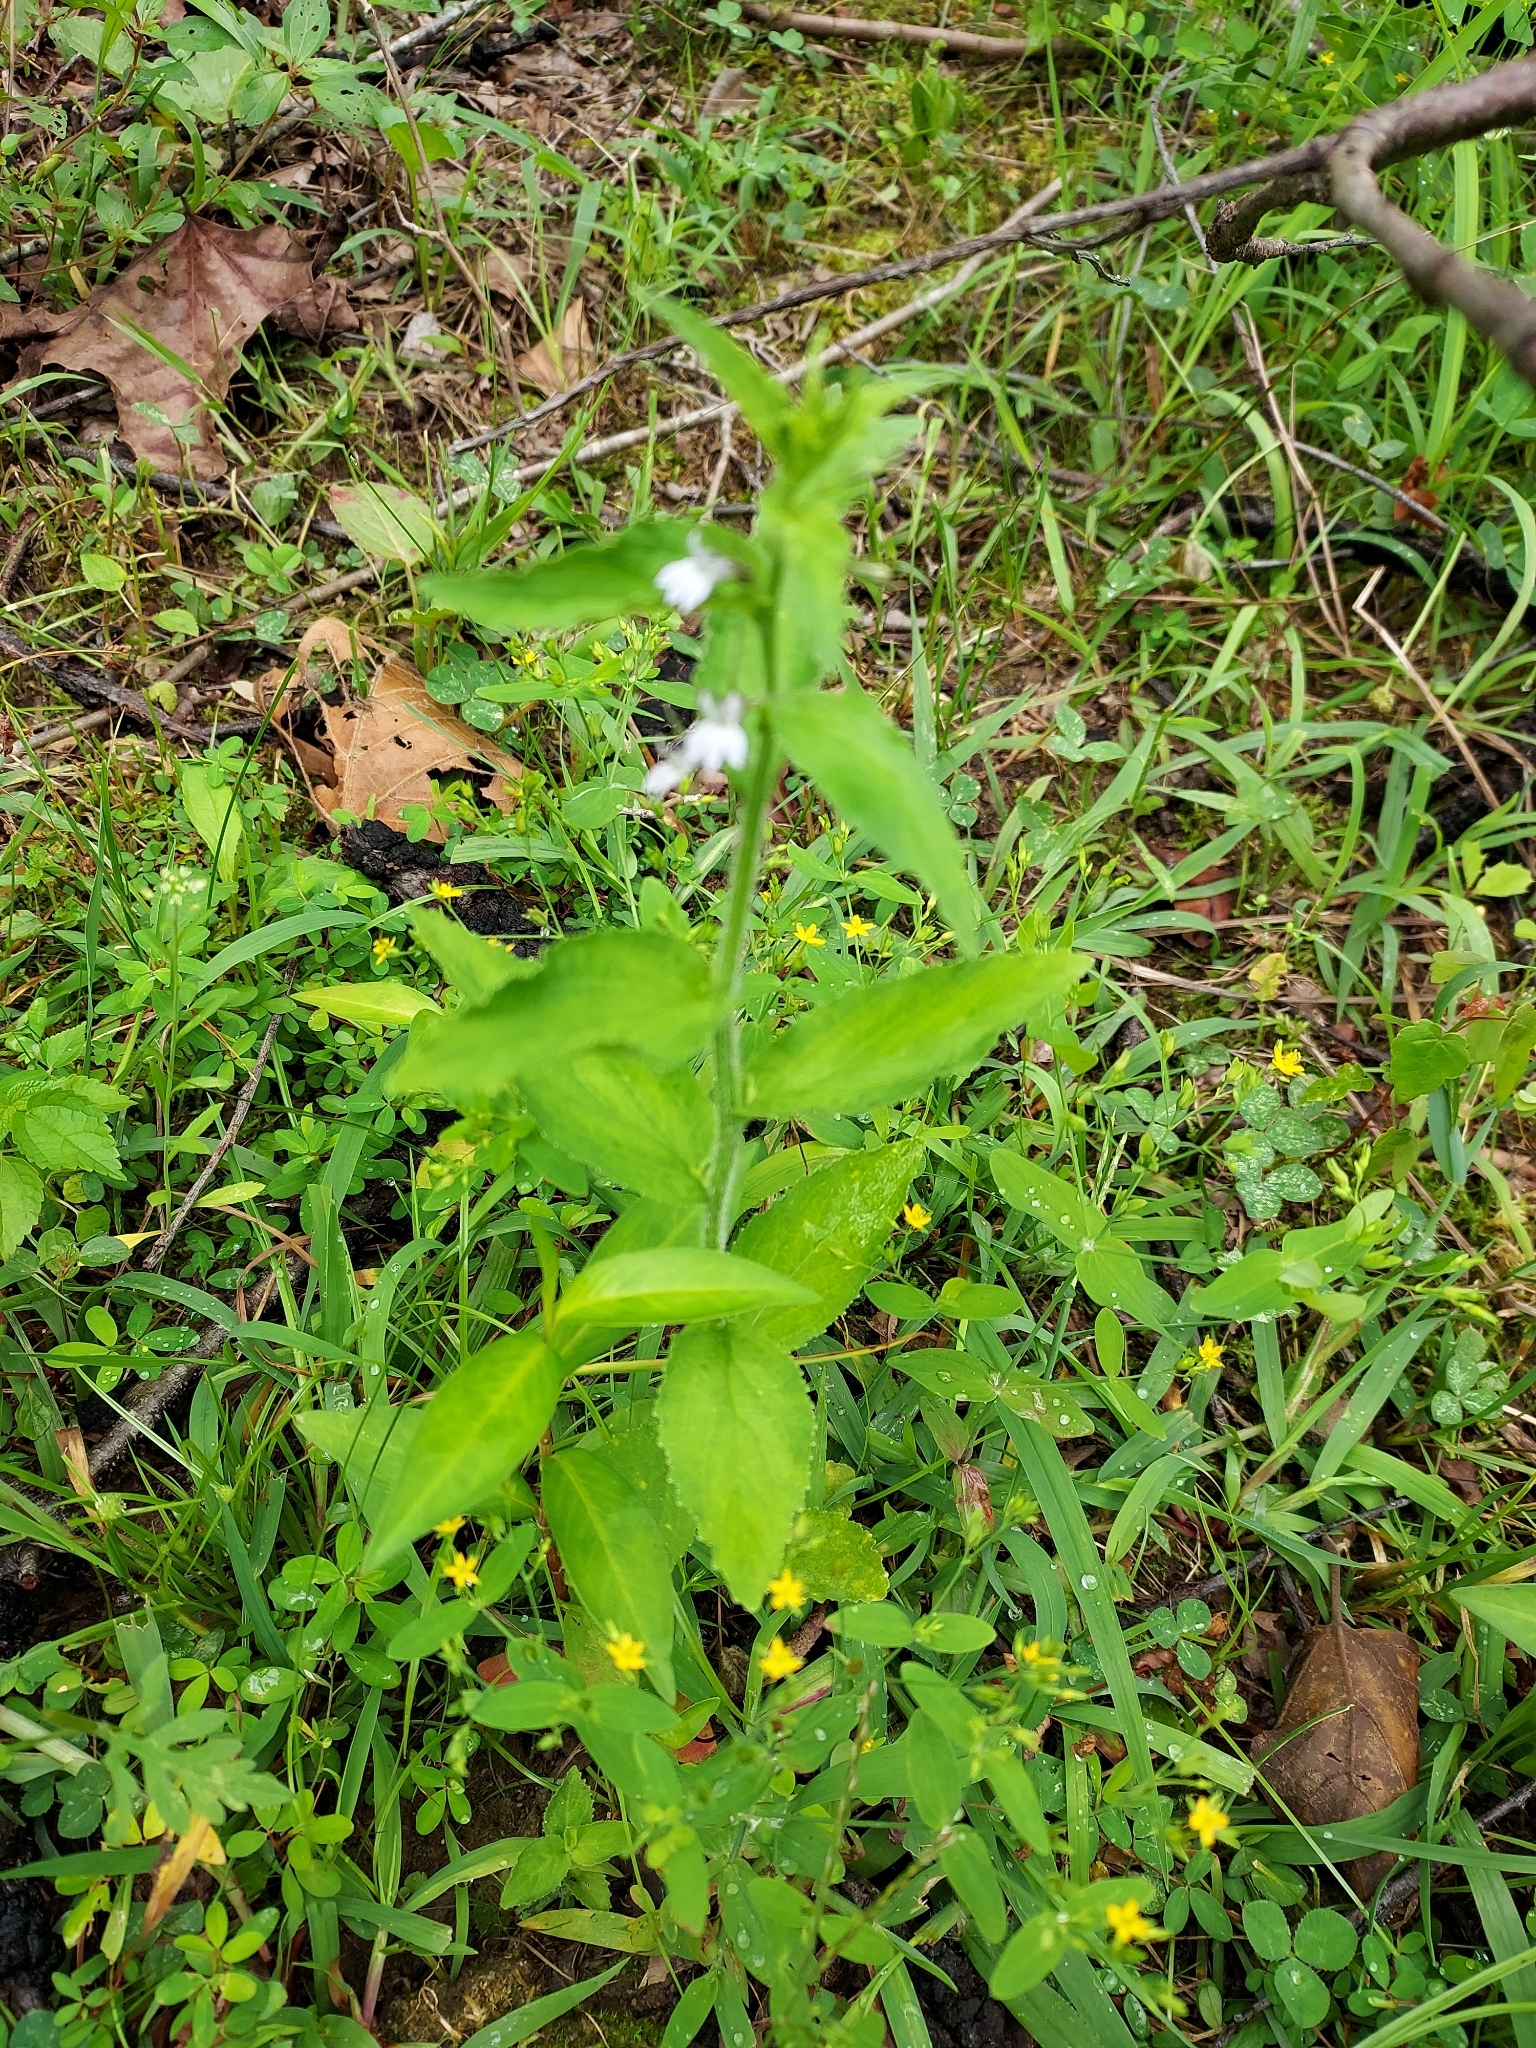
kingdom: Plantae
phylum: Tracheophyta
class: Magnoliopsida
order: Asterales
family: Campanulaceae
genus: Lobelia
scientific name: Lobelia inflata
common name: Indian tobacco
